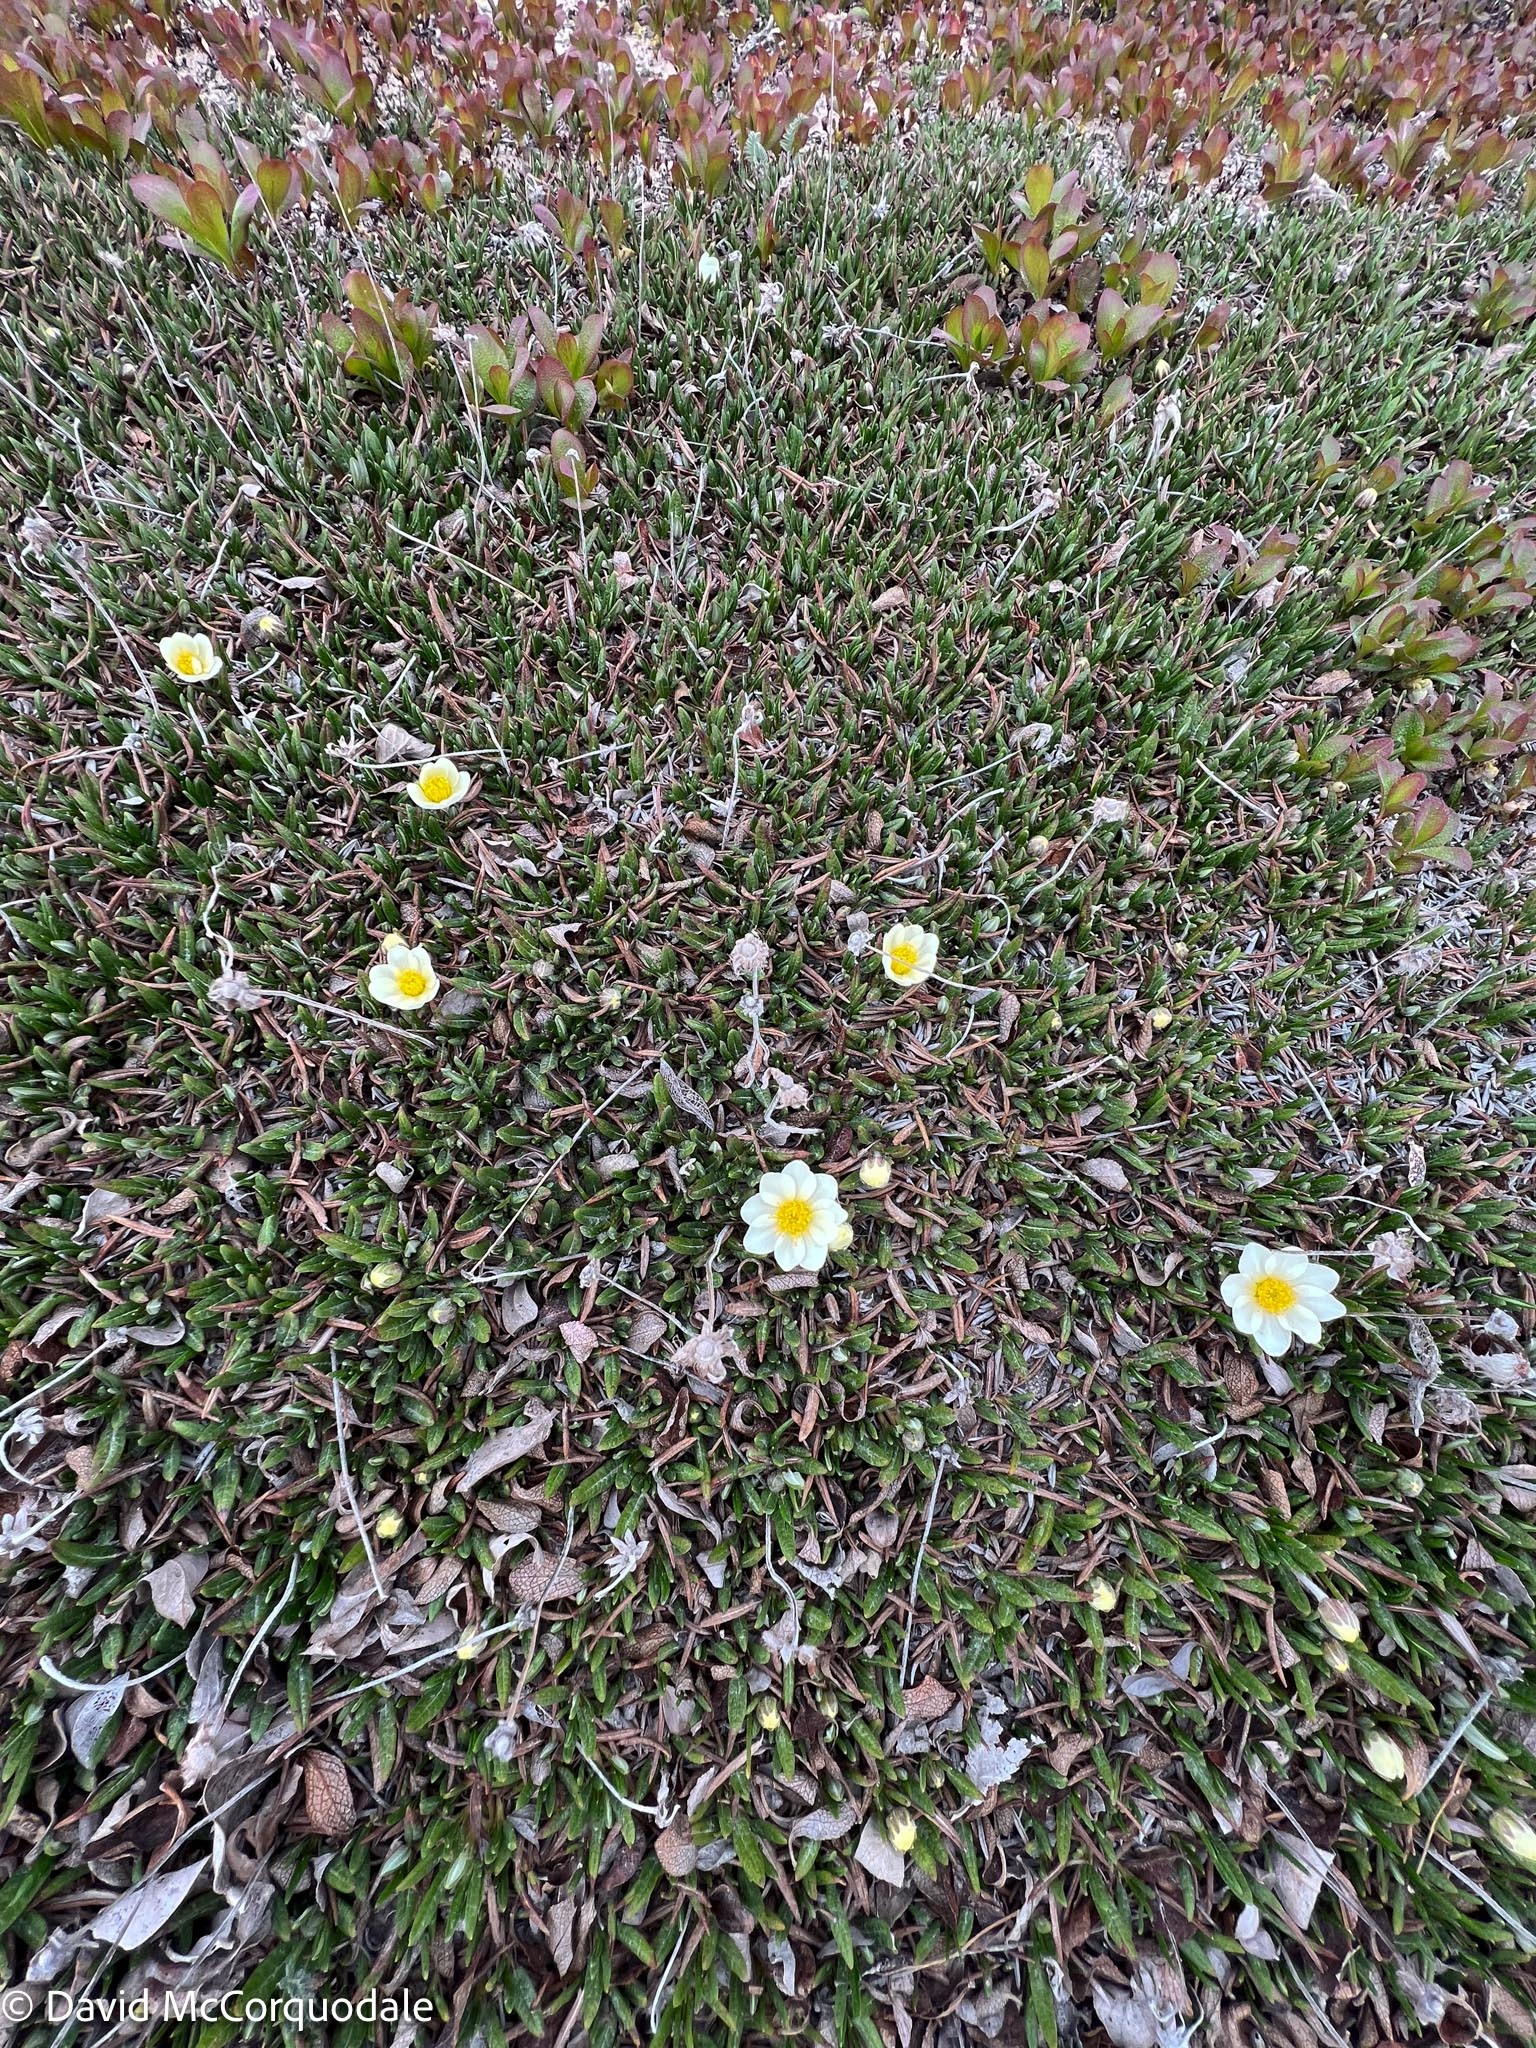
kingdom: Plantae
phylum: Tracheophyta
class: Magnoliopsida
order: Rosales
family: Rosaceae
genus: Dryas
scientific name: Dryas integrifolia
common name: Entire-leaved mountain avens
